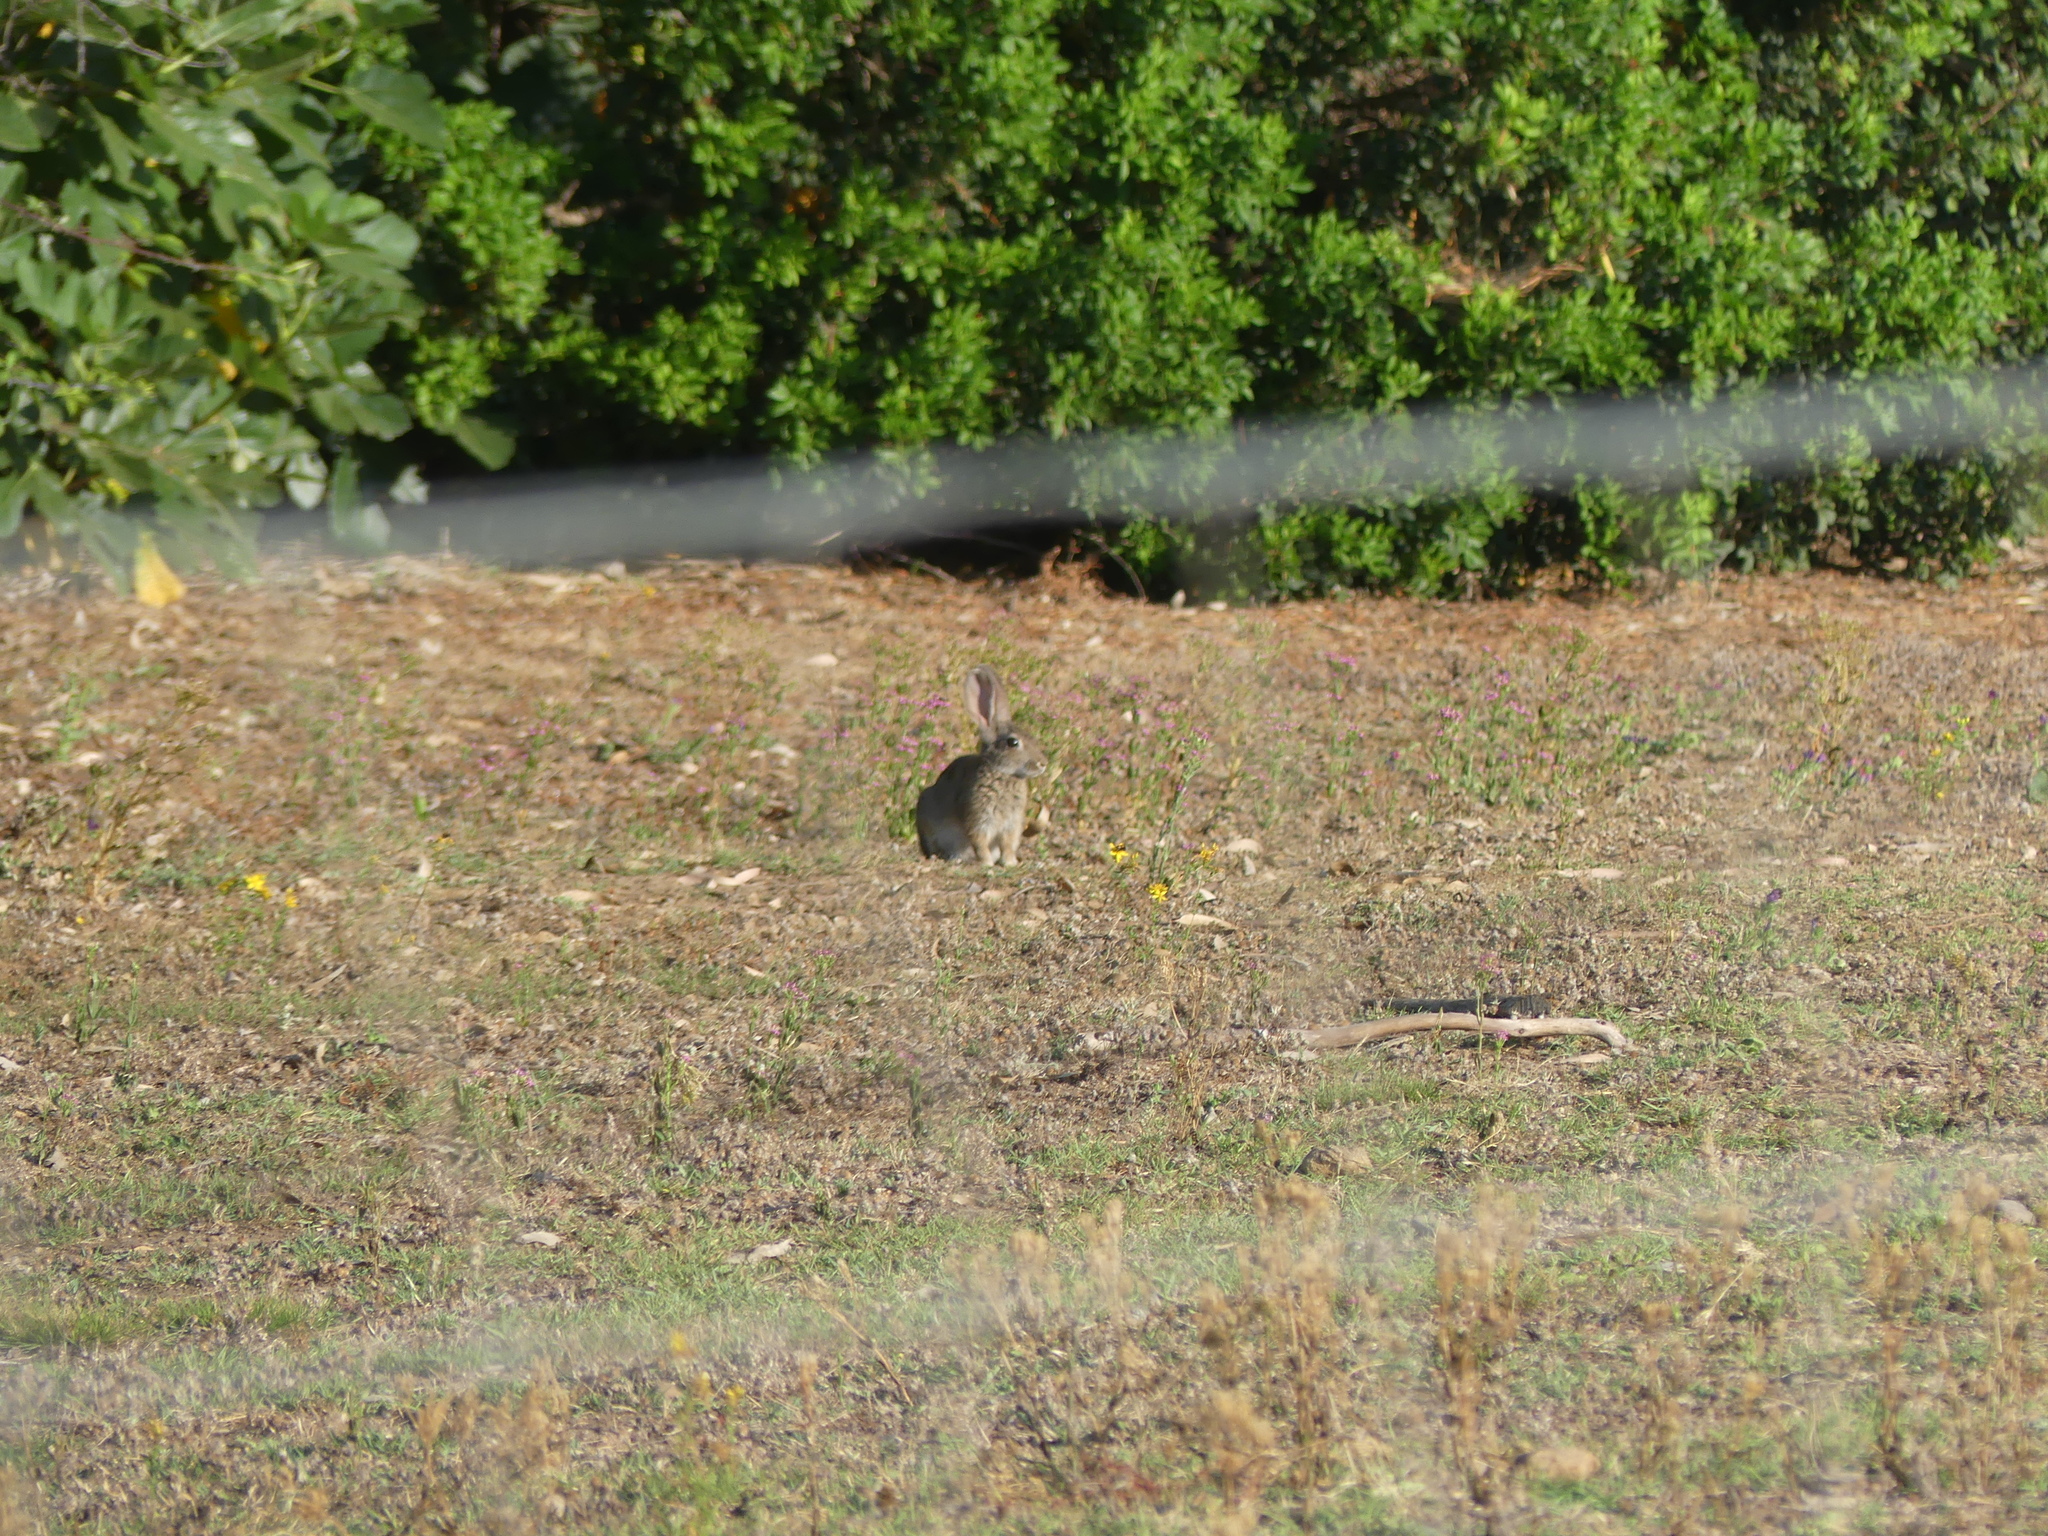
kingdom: Animalia
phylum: Chordata
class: Mammalia
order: Lagomorpha
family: Leporidae
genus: Oryctolagus
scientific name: Oryctolagus cuniculus
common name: European rabbit
